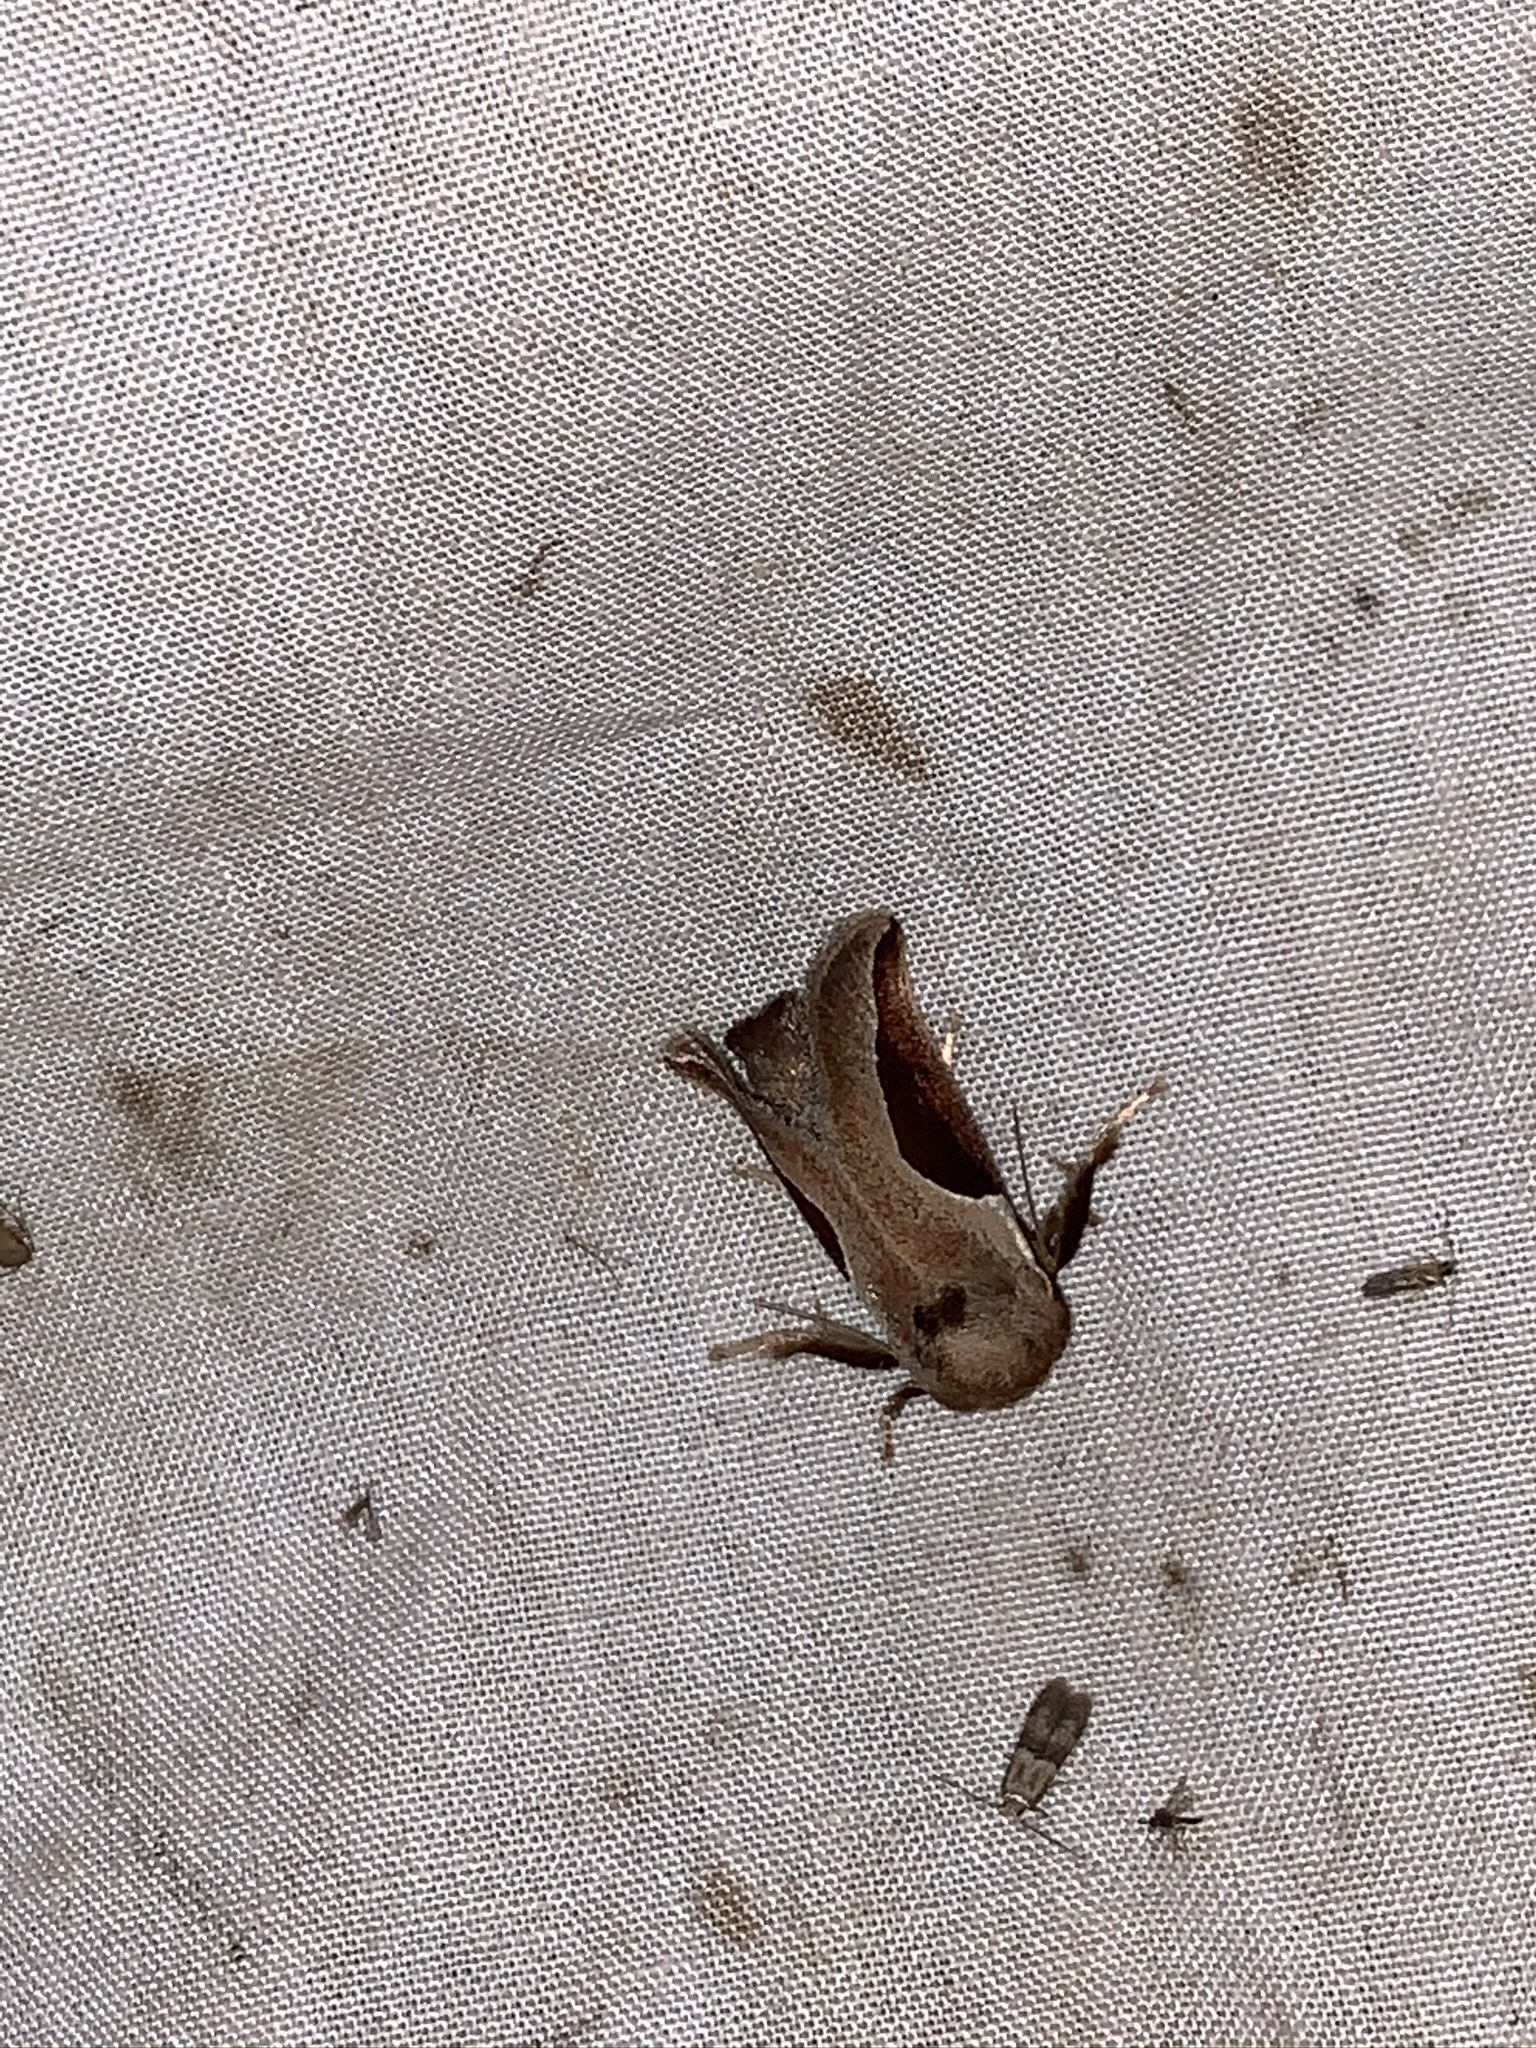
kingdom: Animalia
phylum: Arthropoda
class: Insecta
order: Lepidoptera
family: Limacodidae
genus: Prolimacodes
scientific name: Prolimacodes badia
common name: Skiff moth
